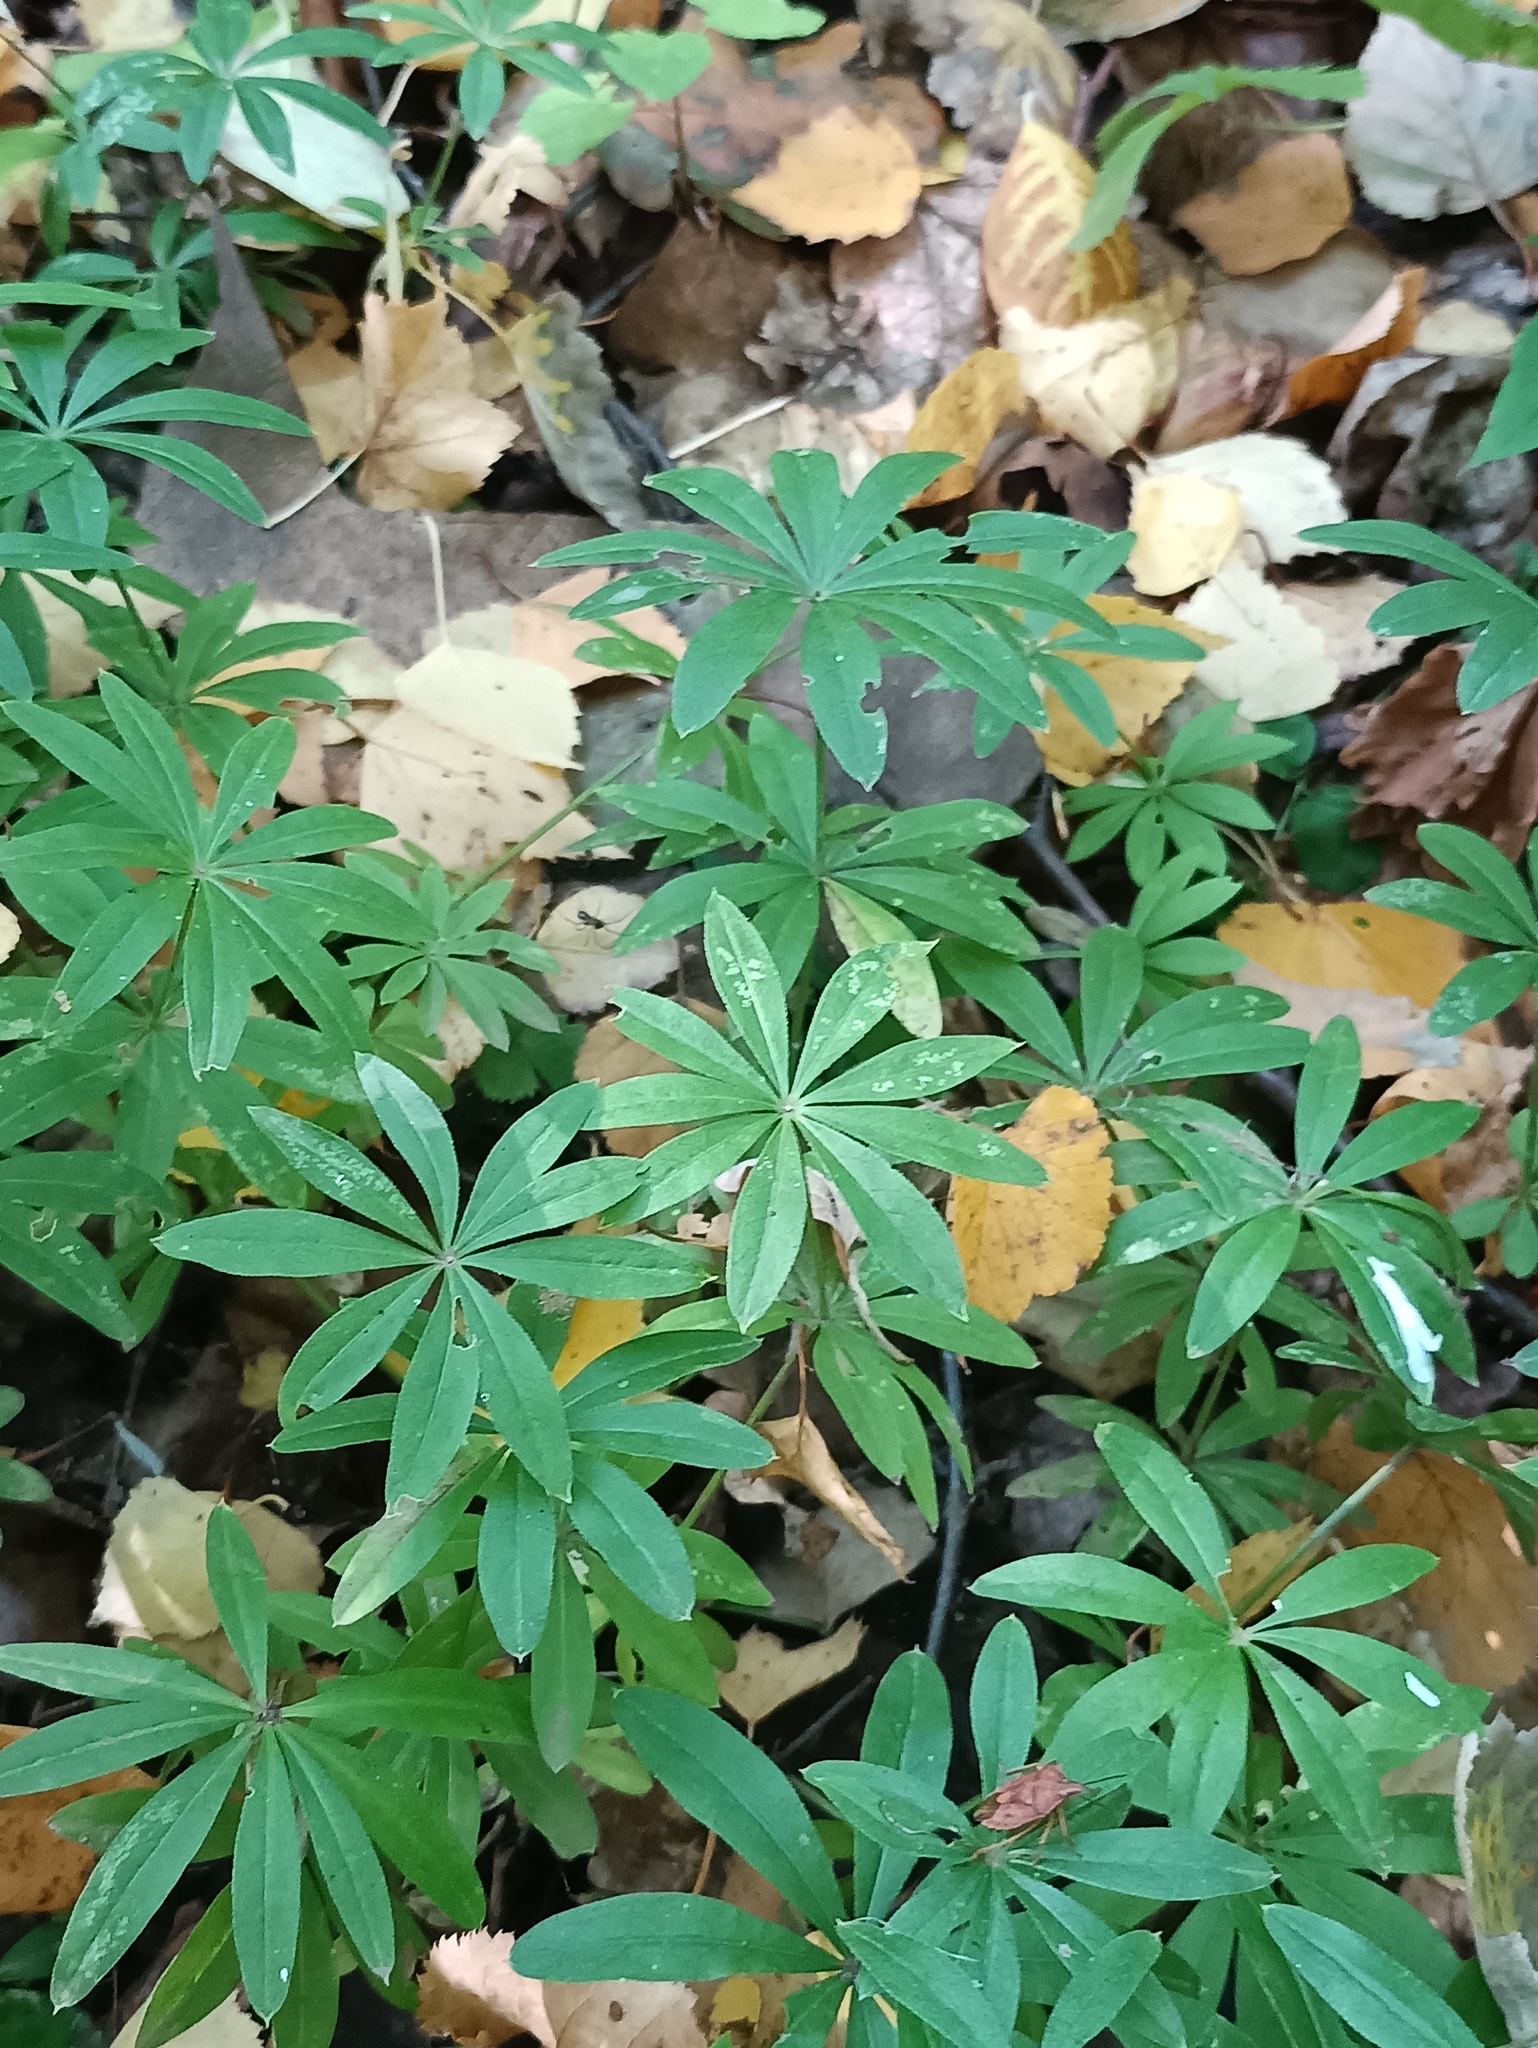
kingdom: Plantae
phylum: Tracheophyta
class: Magnoliopsida
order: Gentianales
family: Rubiaceae
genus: Galium
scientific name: Galium odoratum
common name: Sweet woodruff
